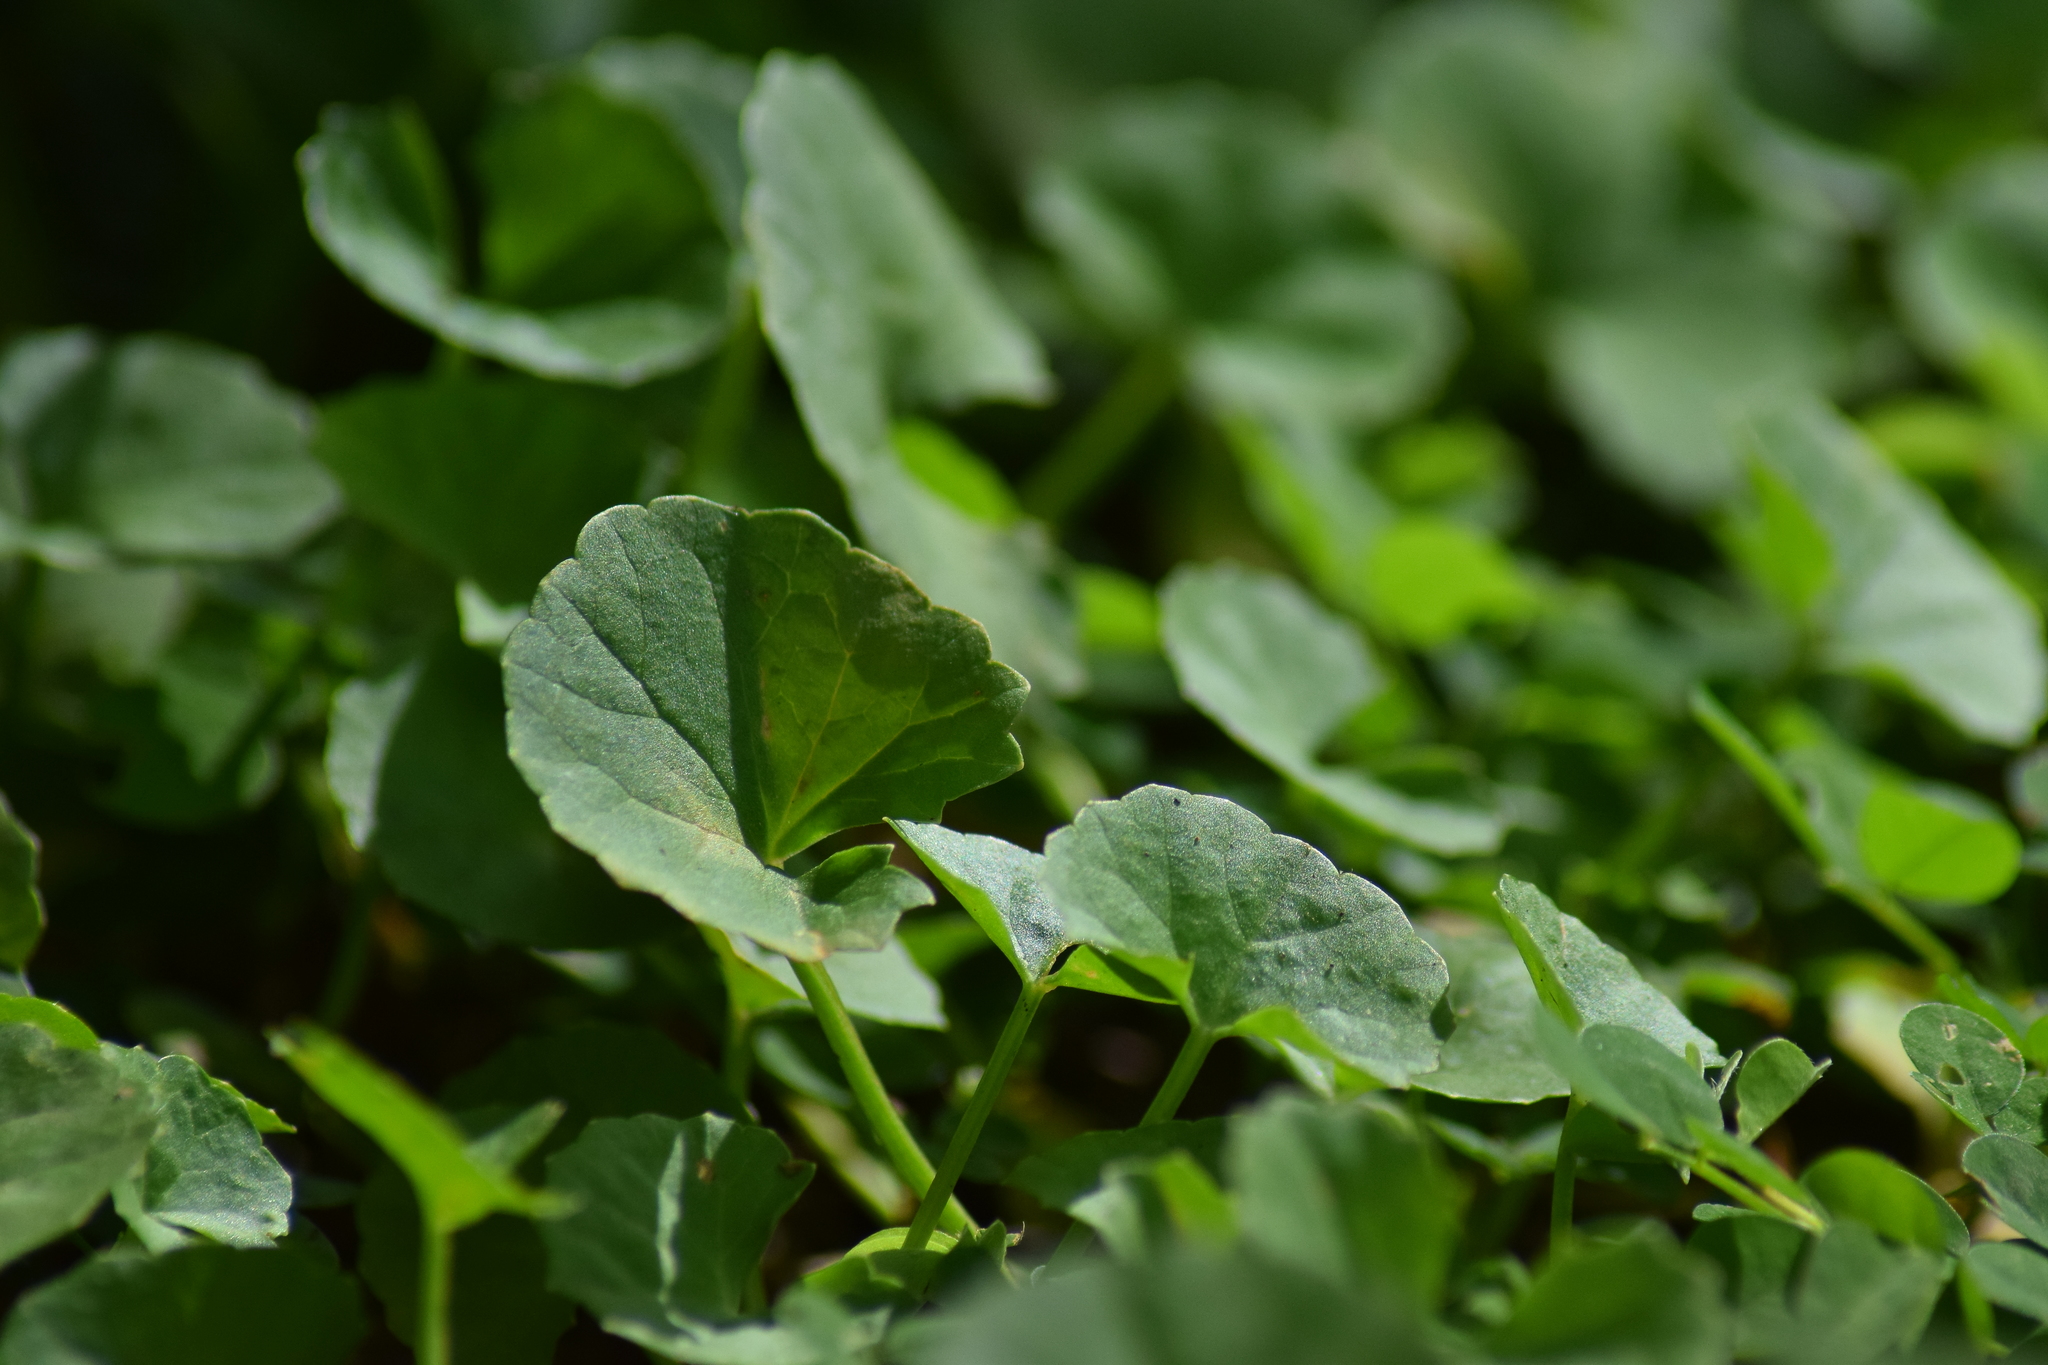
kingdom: Plantae
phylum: Tracheophyta
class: Magnoliopsida
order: Apiales
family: Apiaceae
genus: Centella
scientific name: Centella asiatica
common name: Spadeleaf
